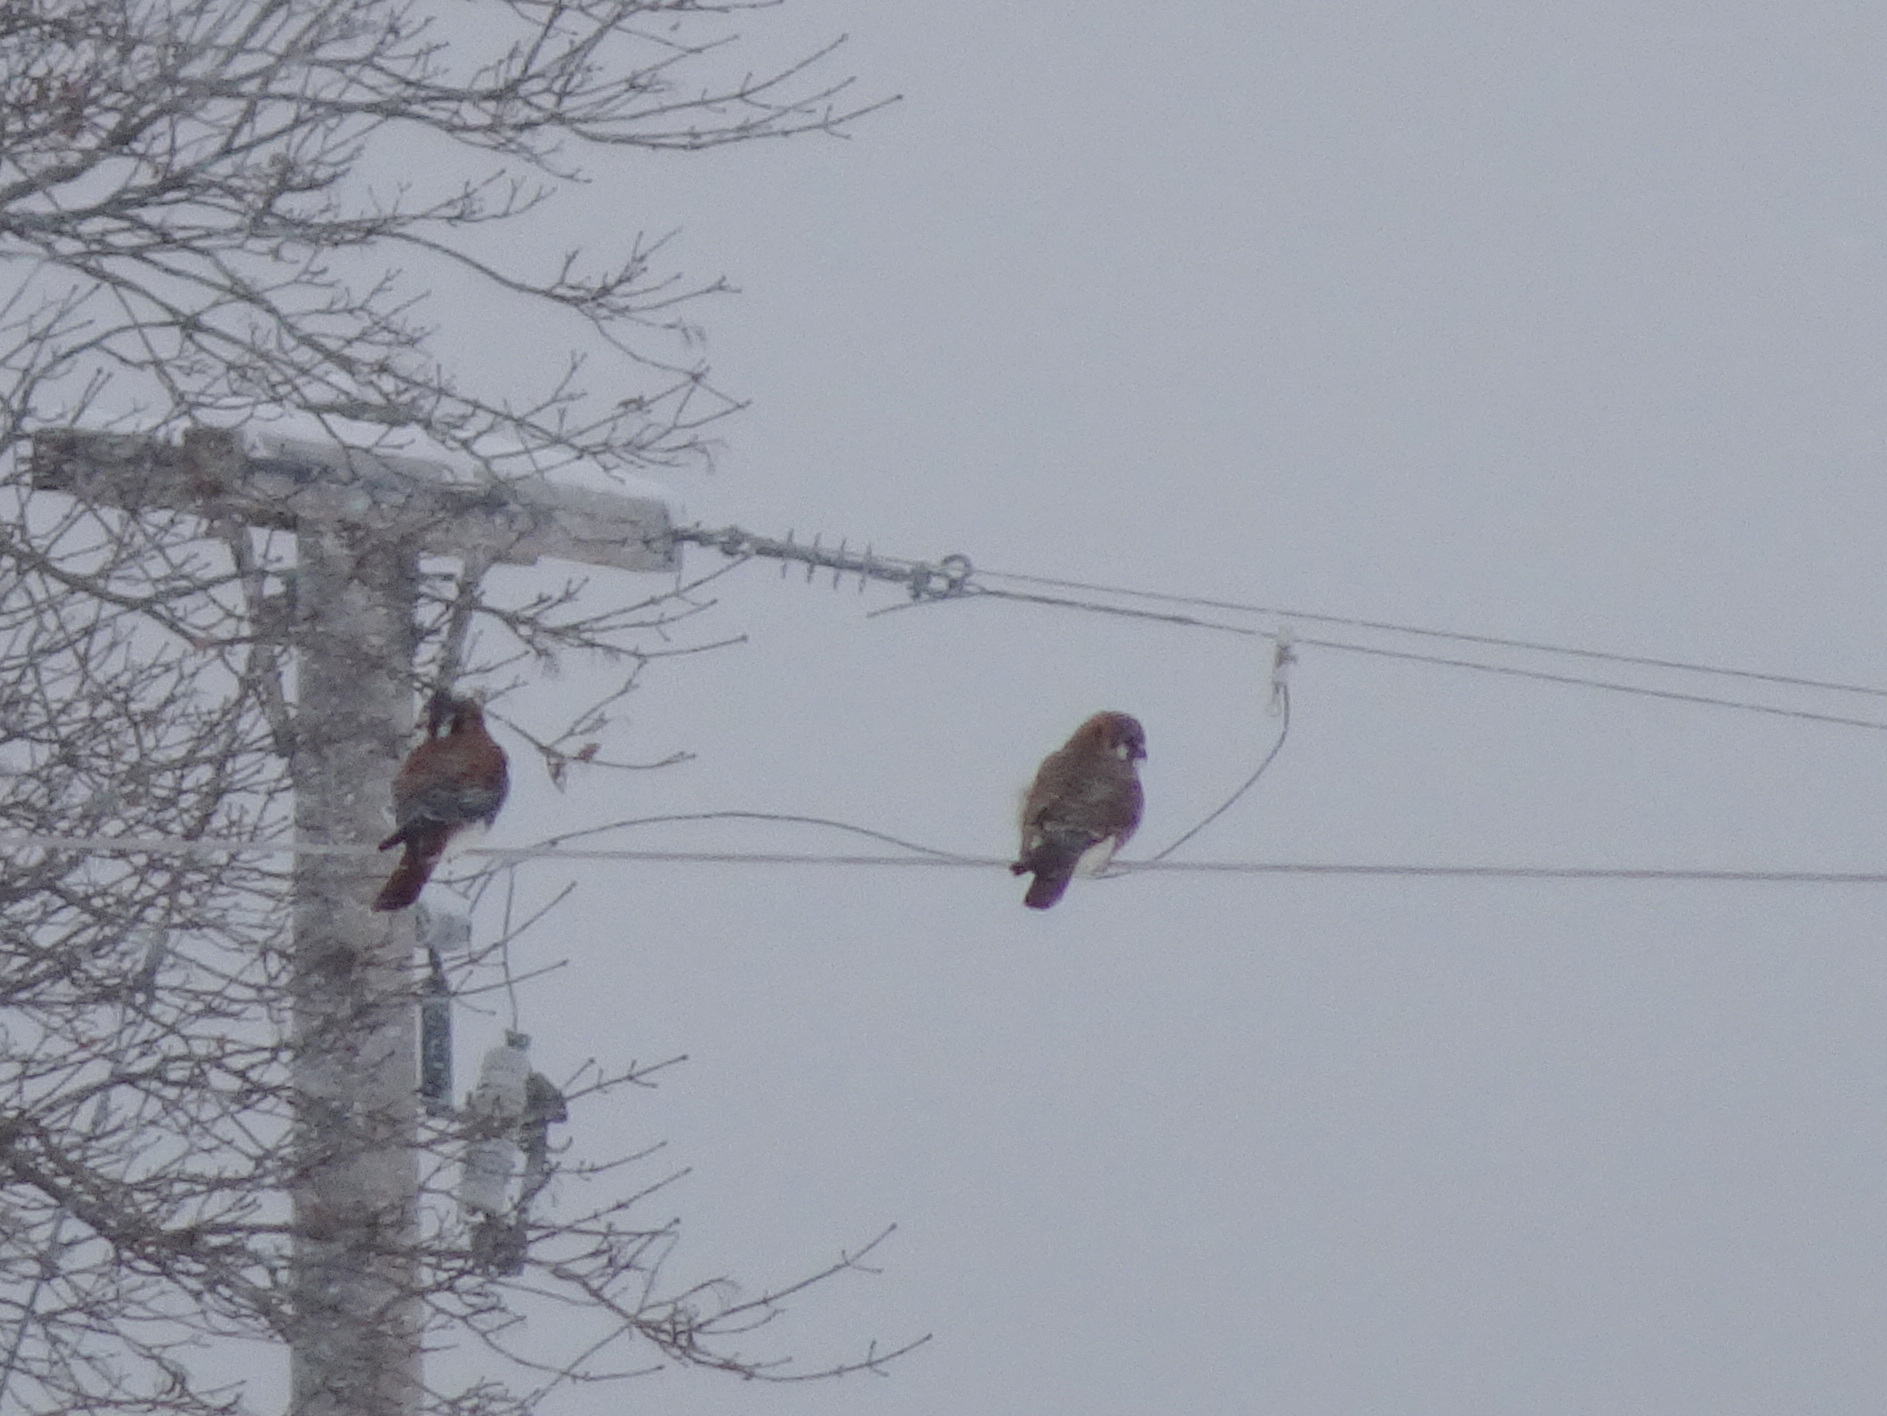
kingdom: Animalia
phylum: Chordata
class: Aves
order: Falconiformes
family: Falconidae
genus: Falco
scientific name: Falco sparverius
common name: American kestrel
